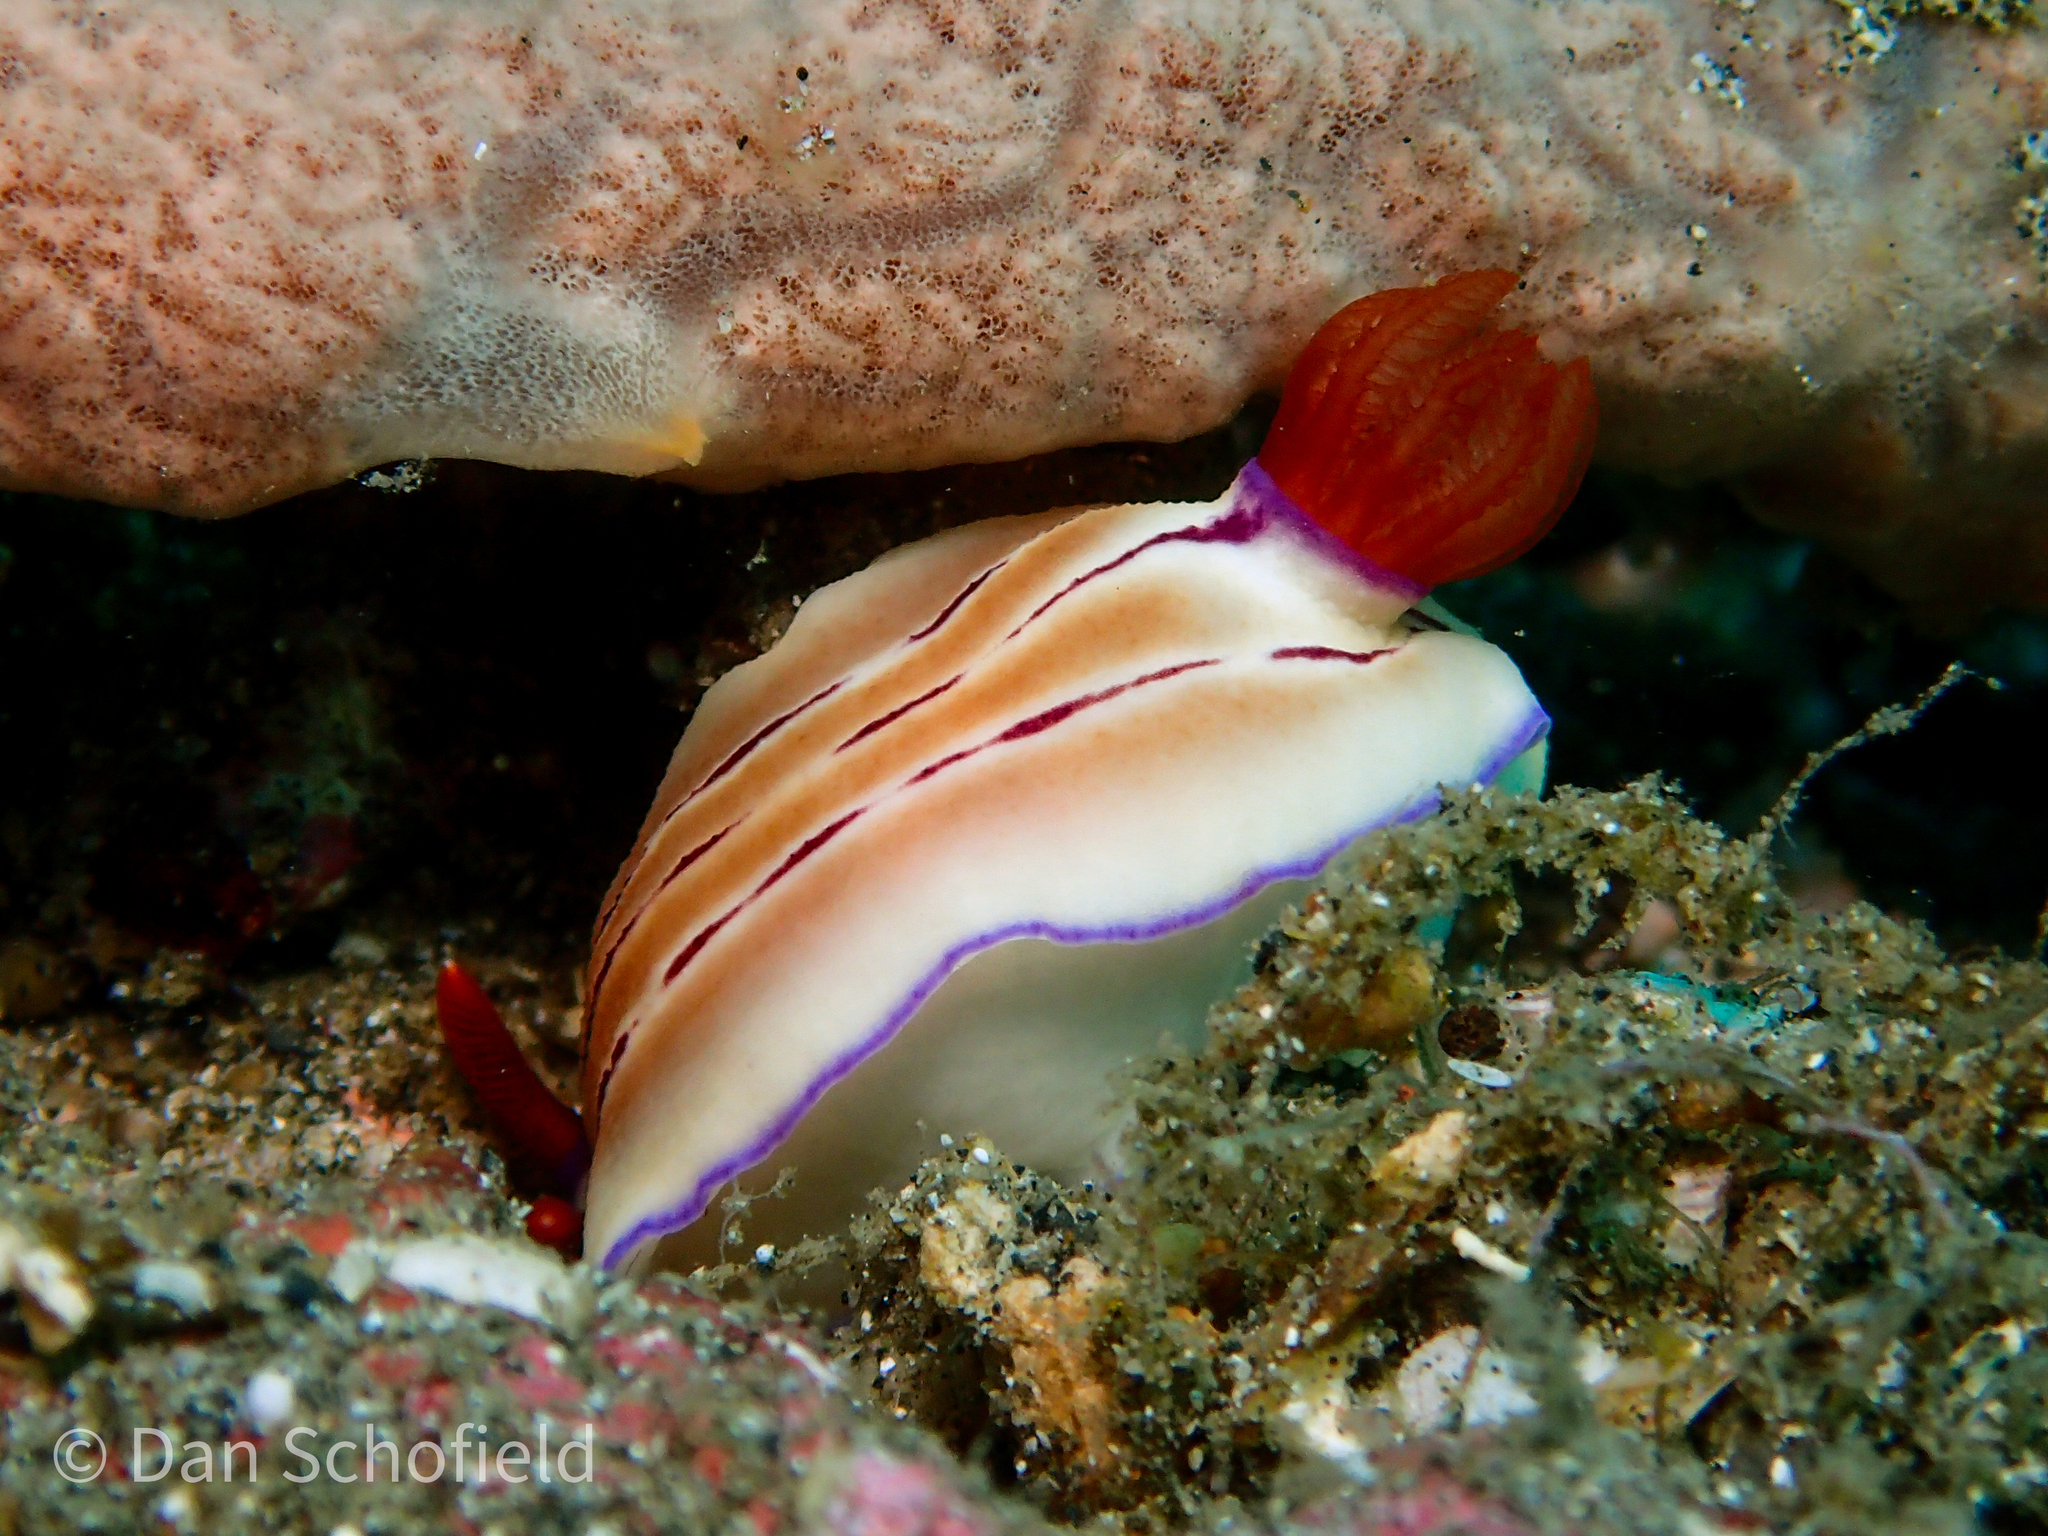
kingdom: Animalia
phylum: Mollusca
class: Gastropoda
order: Nudibranchia
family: Chromodorididae
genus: Hypselodoris
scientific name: Hypselodoris emma
